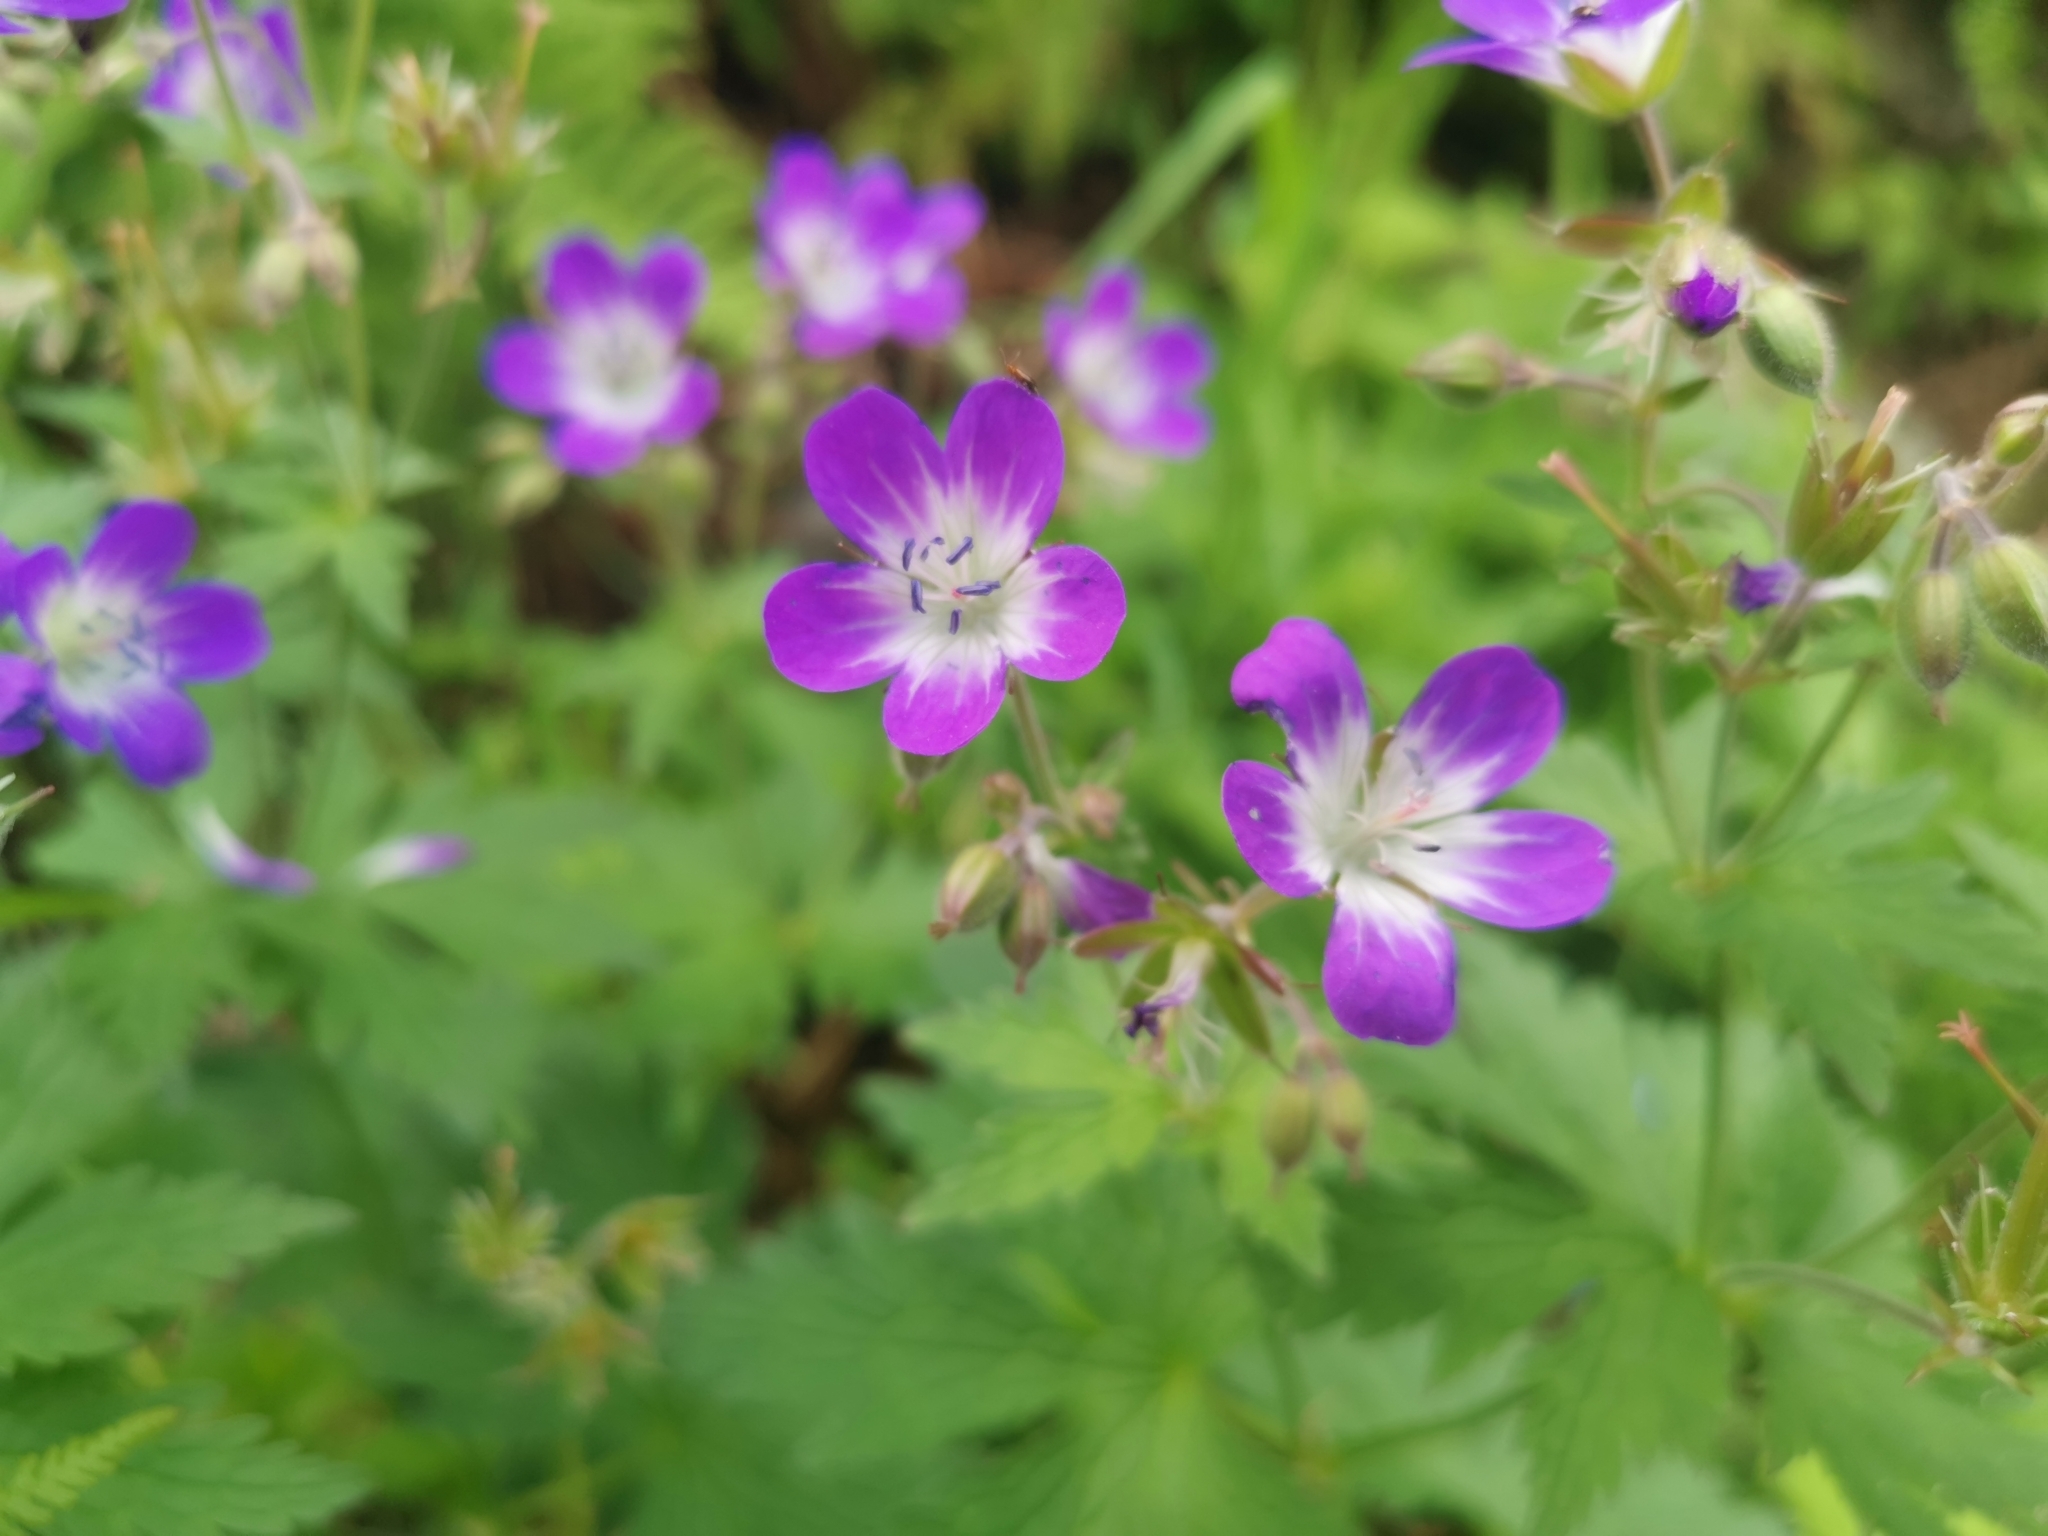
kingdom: Plantae
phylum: Tracheophyta
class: Magnoliopsida
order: Geraniales
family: Geraniaceae
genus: Geranium
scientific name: Geranium sylvaticum
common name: Wood crane's-bill
